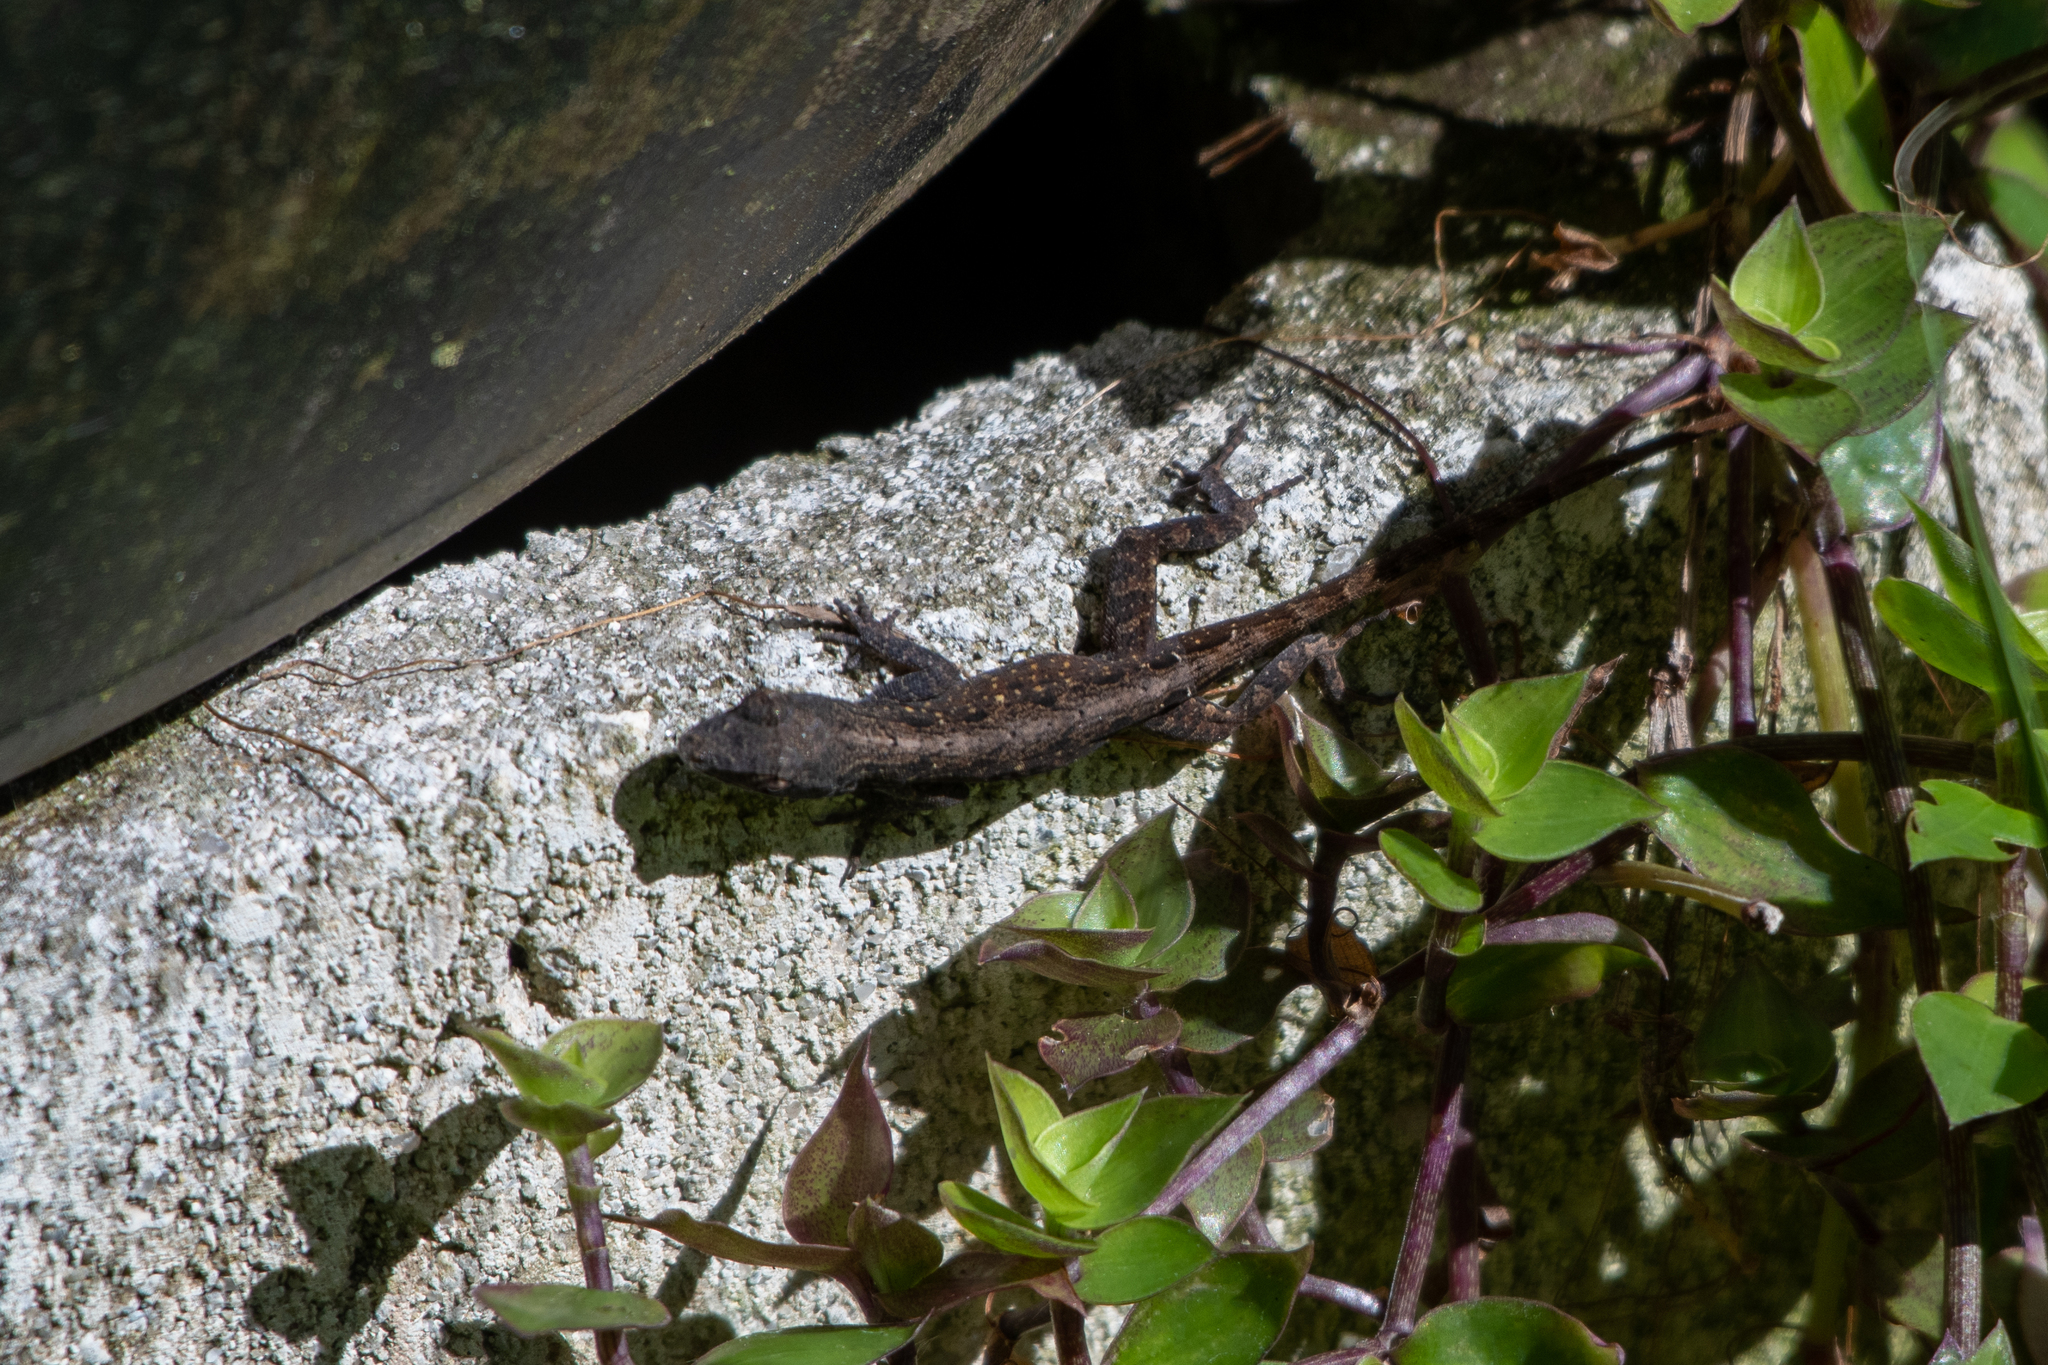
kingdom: Animalia
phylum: Chordata
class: Squamata
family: Dactyloidae
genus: Anolis
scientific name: Anolis sagrei
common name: Brown anole
